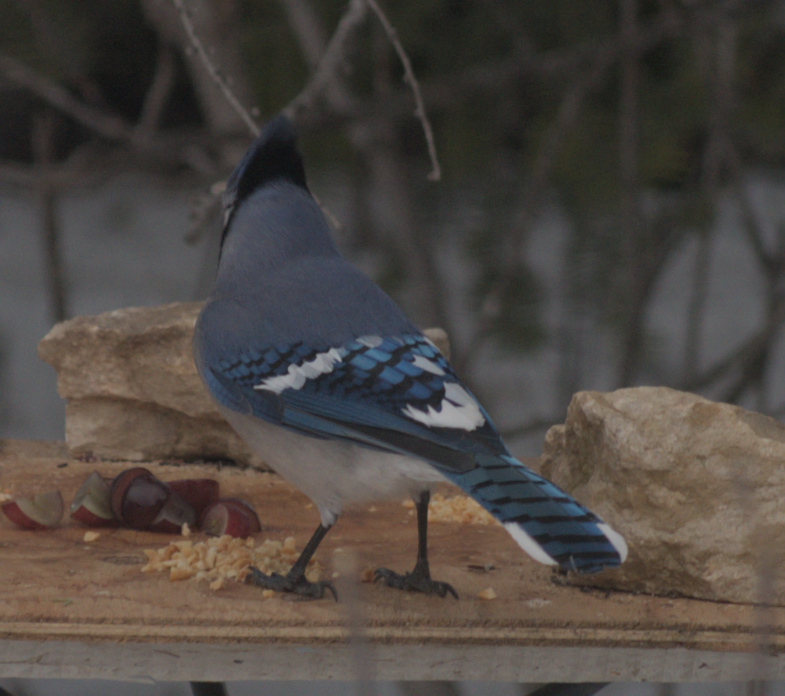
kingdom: Animalia
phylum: Chordata
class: Aves
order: Passeriformes
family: Corvidae
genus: Cyanocitta
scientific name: Cyanocitta cristata
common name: Blue jay
